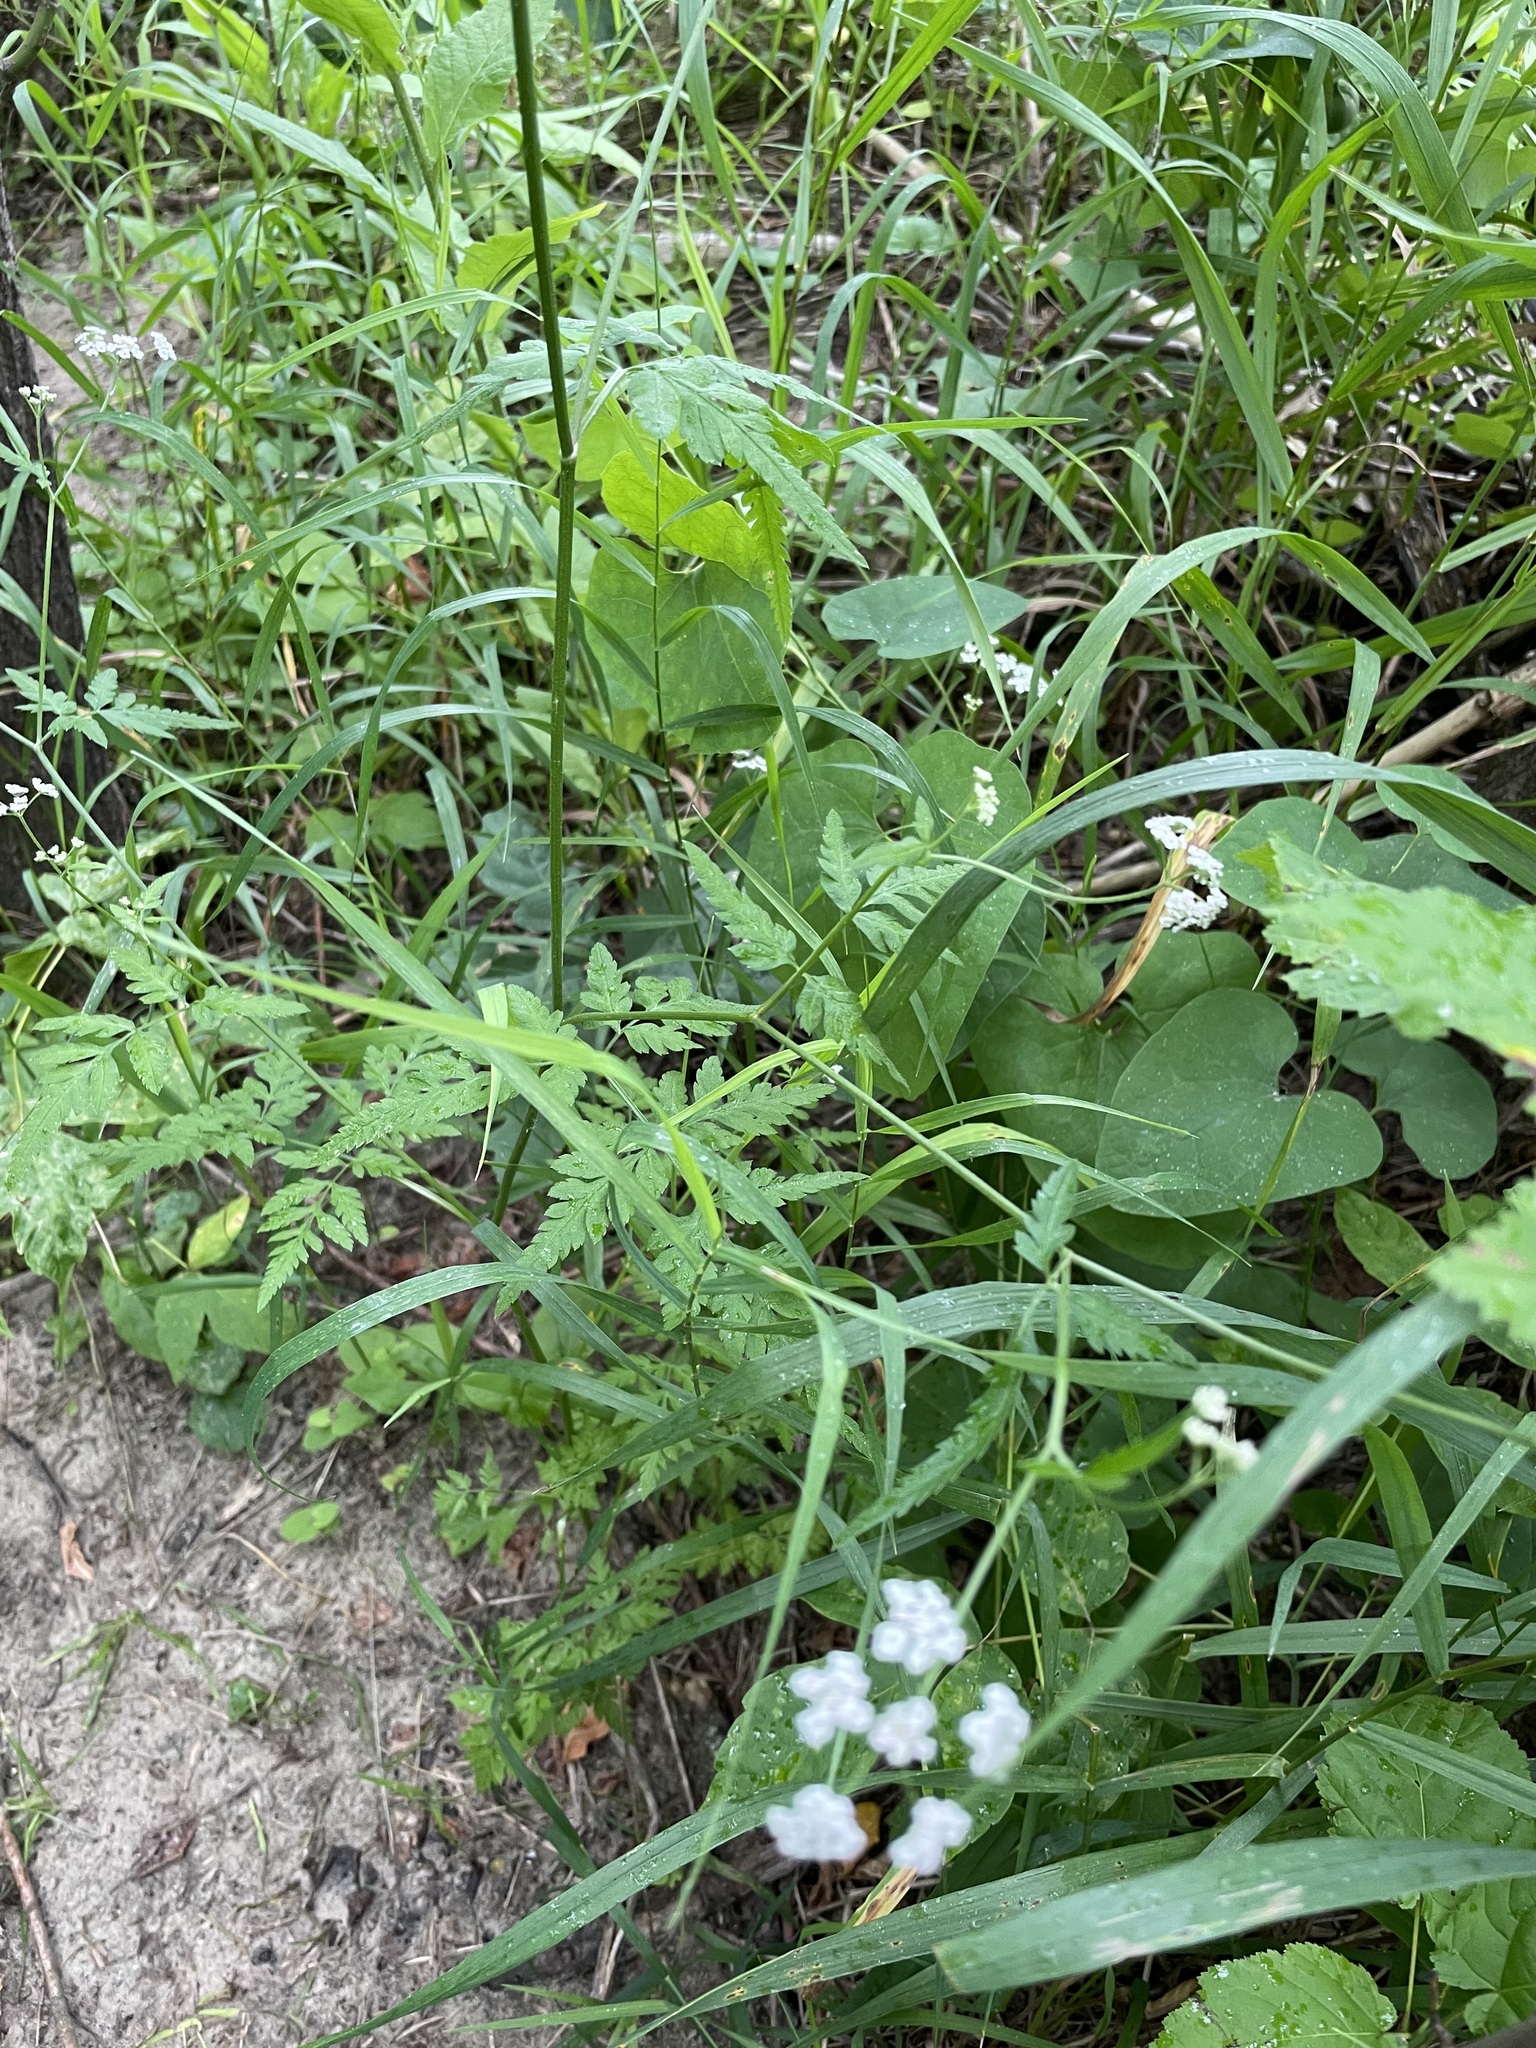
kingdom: Plantae
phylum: Tracheophyta
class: Magnoliopsida
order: Apiales
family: Apiaceae
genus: Torilis
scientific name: Torilis japonica
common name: Upright hedge-parsley
